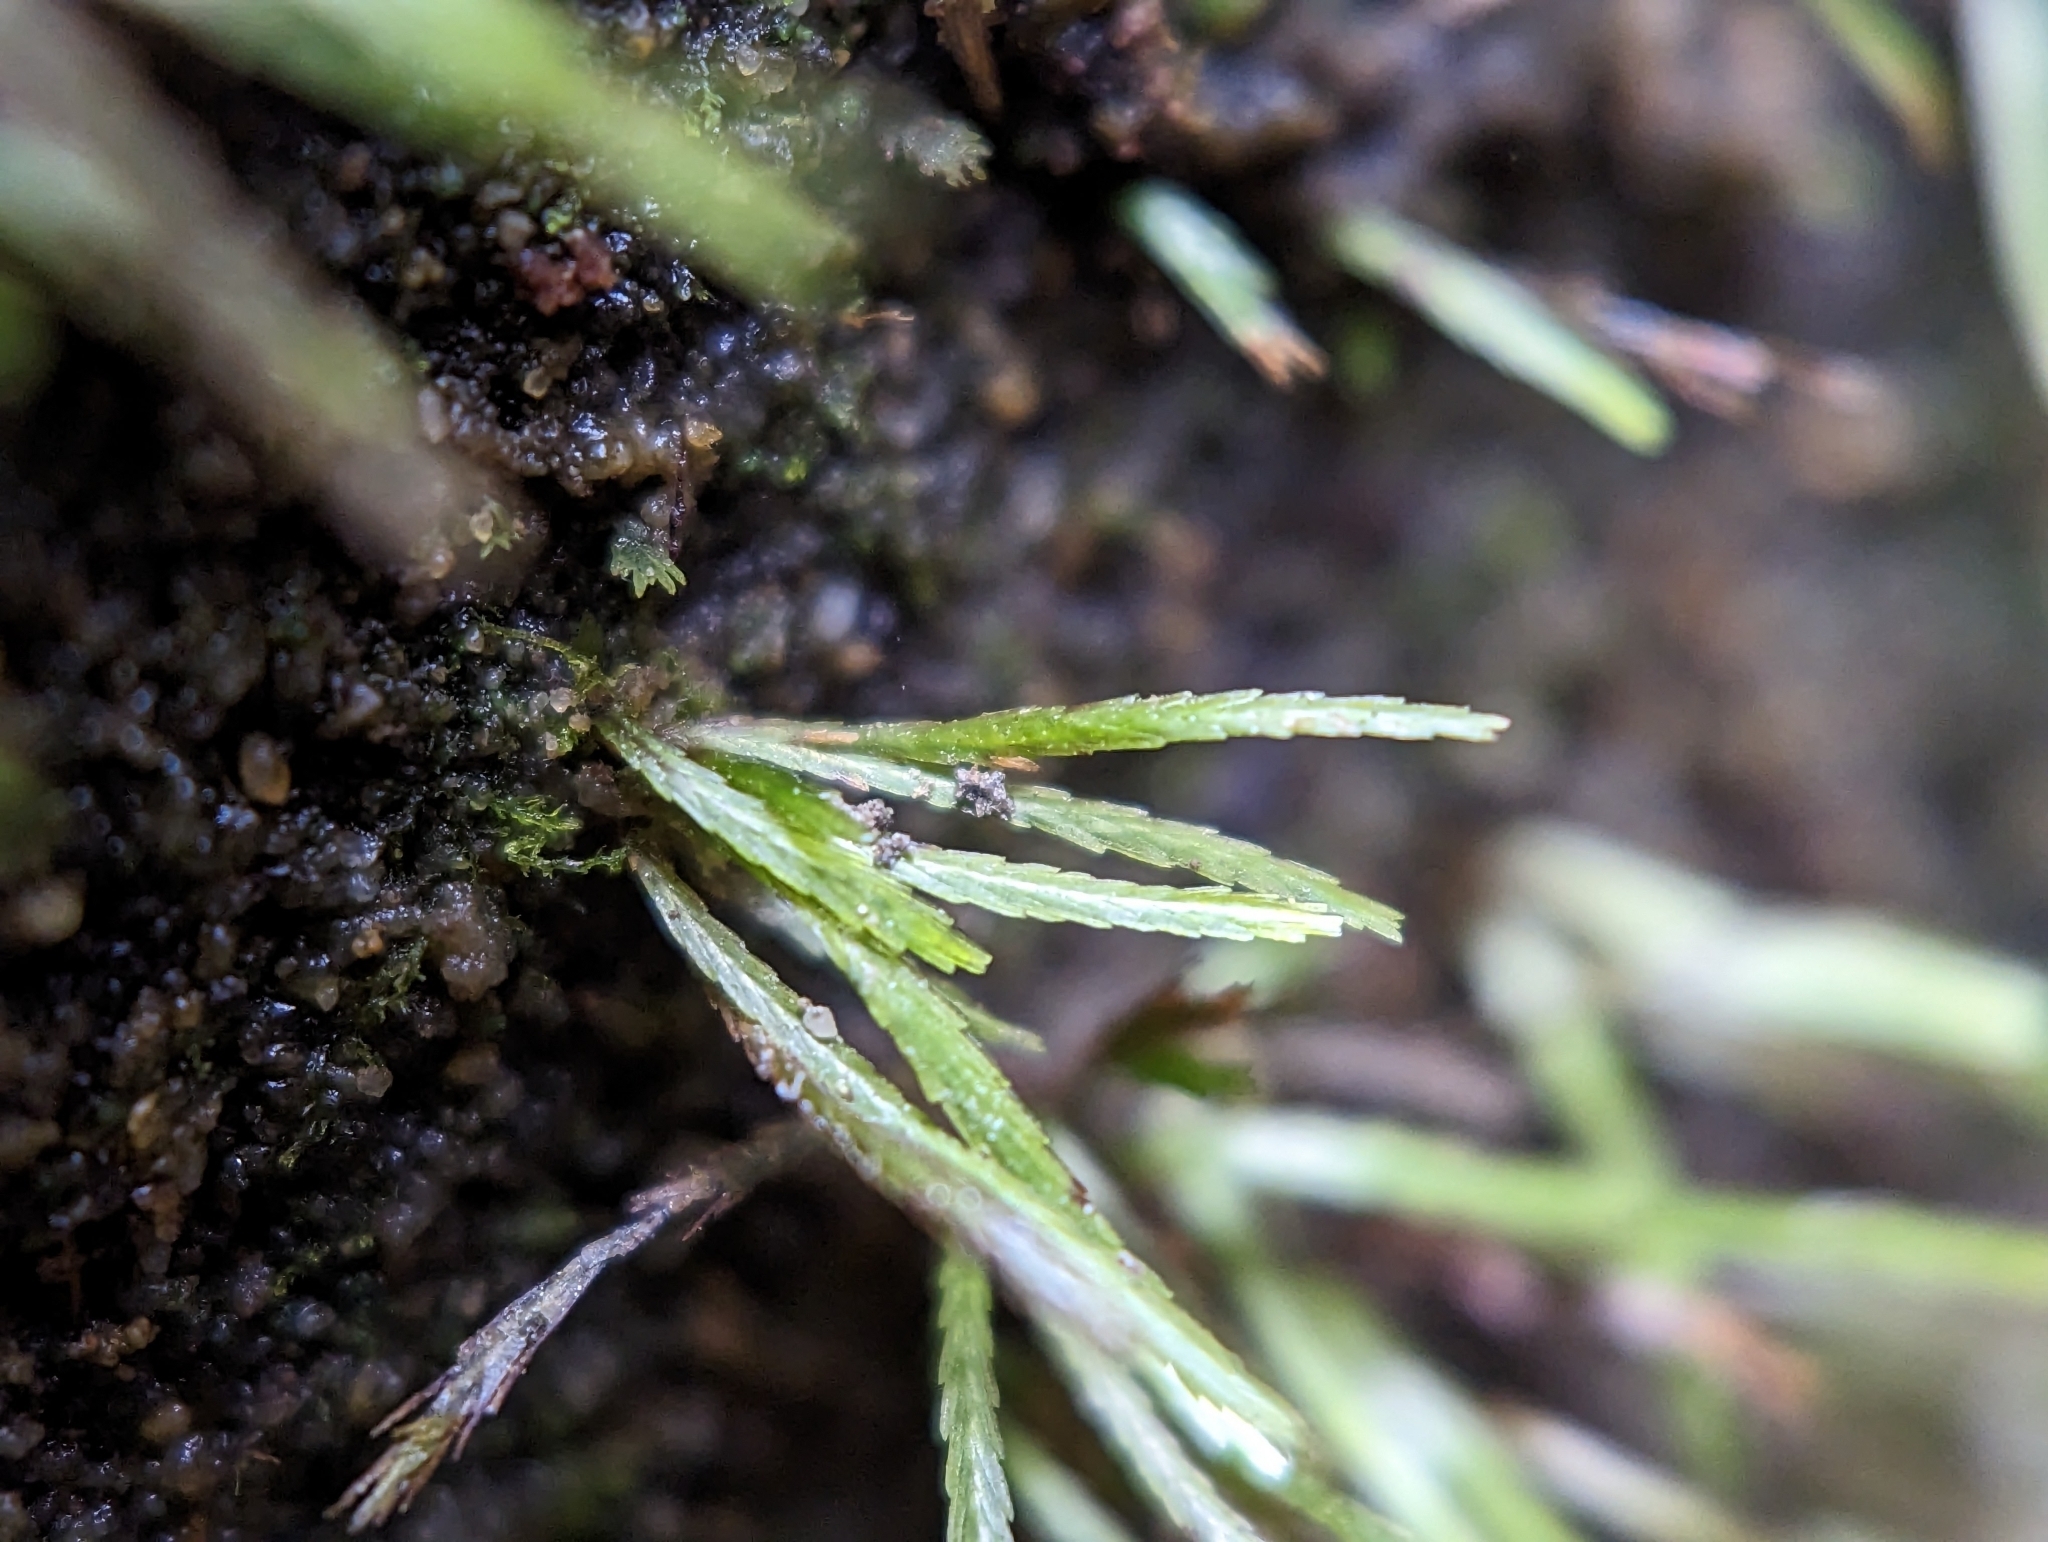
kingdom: Plantae
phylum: Bryophyta
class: Bryopsida
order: Bryoxiphiales
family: Bryoxiphiaceae
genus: Bryoxiphium
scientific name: Bryoxiphium norvegicum
